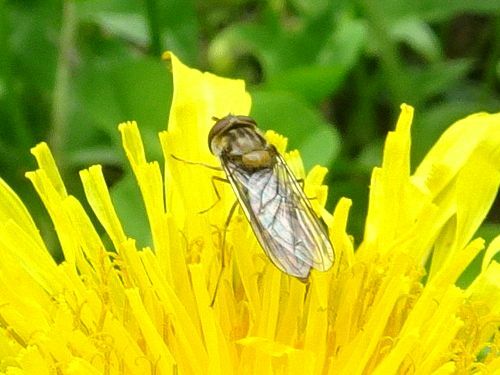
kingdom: Animalia
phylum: Arthropoda
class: Insecta
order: Diptera
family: Syrphidae
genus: Episyrphus
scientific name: Episyrphus balteatus
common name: Marmalade hoverfly
